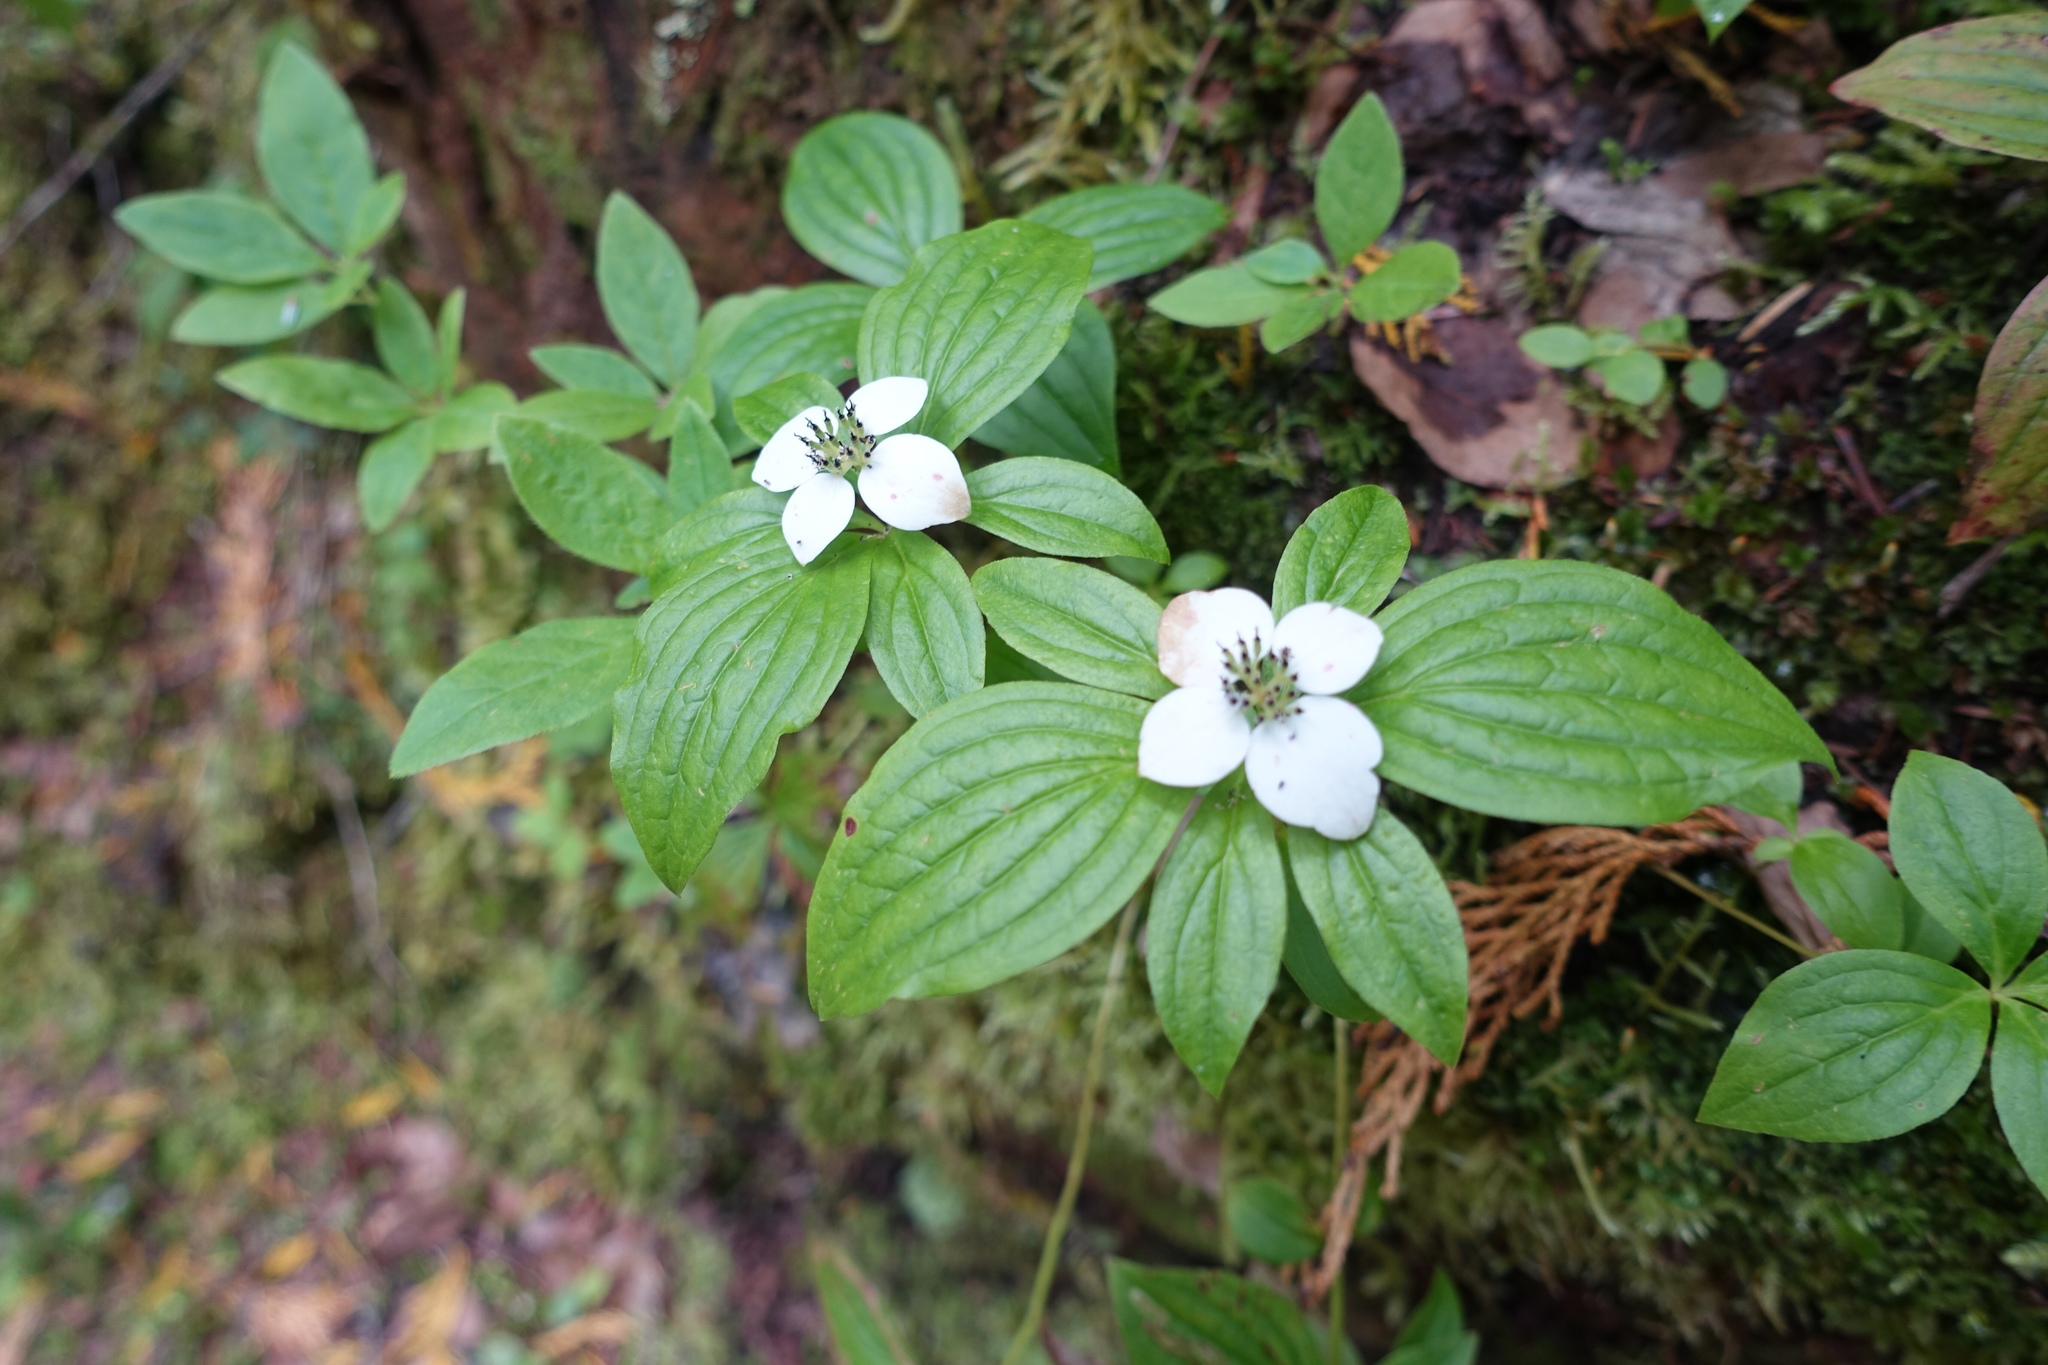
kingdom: Plantae
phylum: Tracheophyta
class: Magnoliopsida
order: Cornales
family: Cornaceae
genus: Cornus
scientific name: Cornus unalaschkensis
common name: Alaska bunchberry
